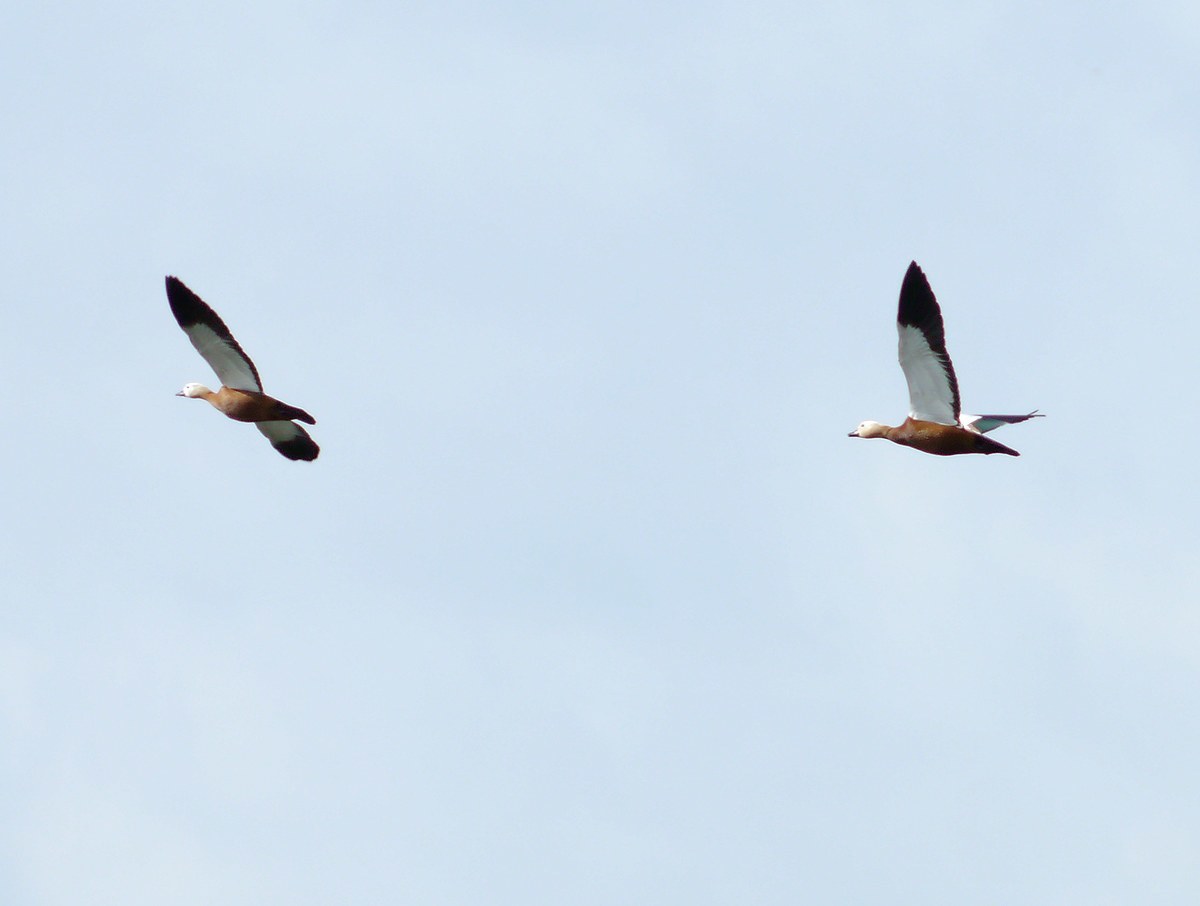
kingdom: Animalia
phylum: Chordata
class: Aves
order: Anseriformes
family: Anatidae
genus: Tadorna
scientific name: Tadorna ferruginea
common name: Ruddy shelduck
